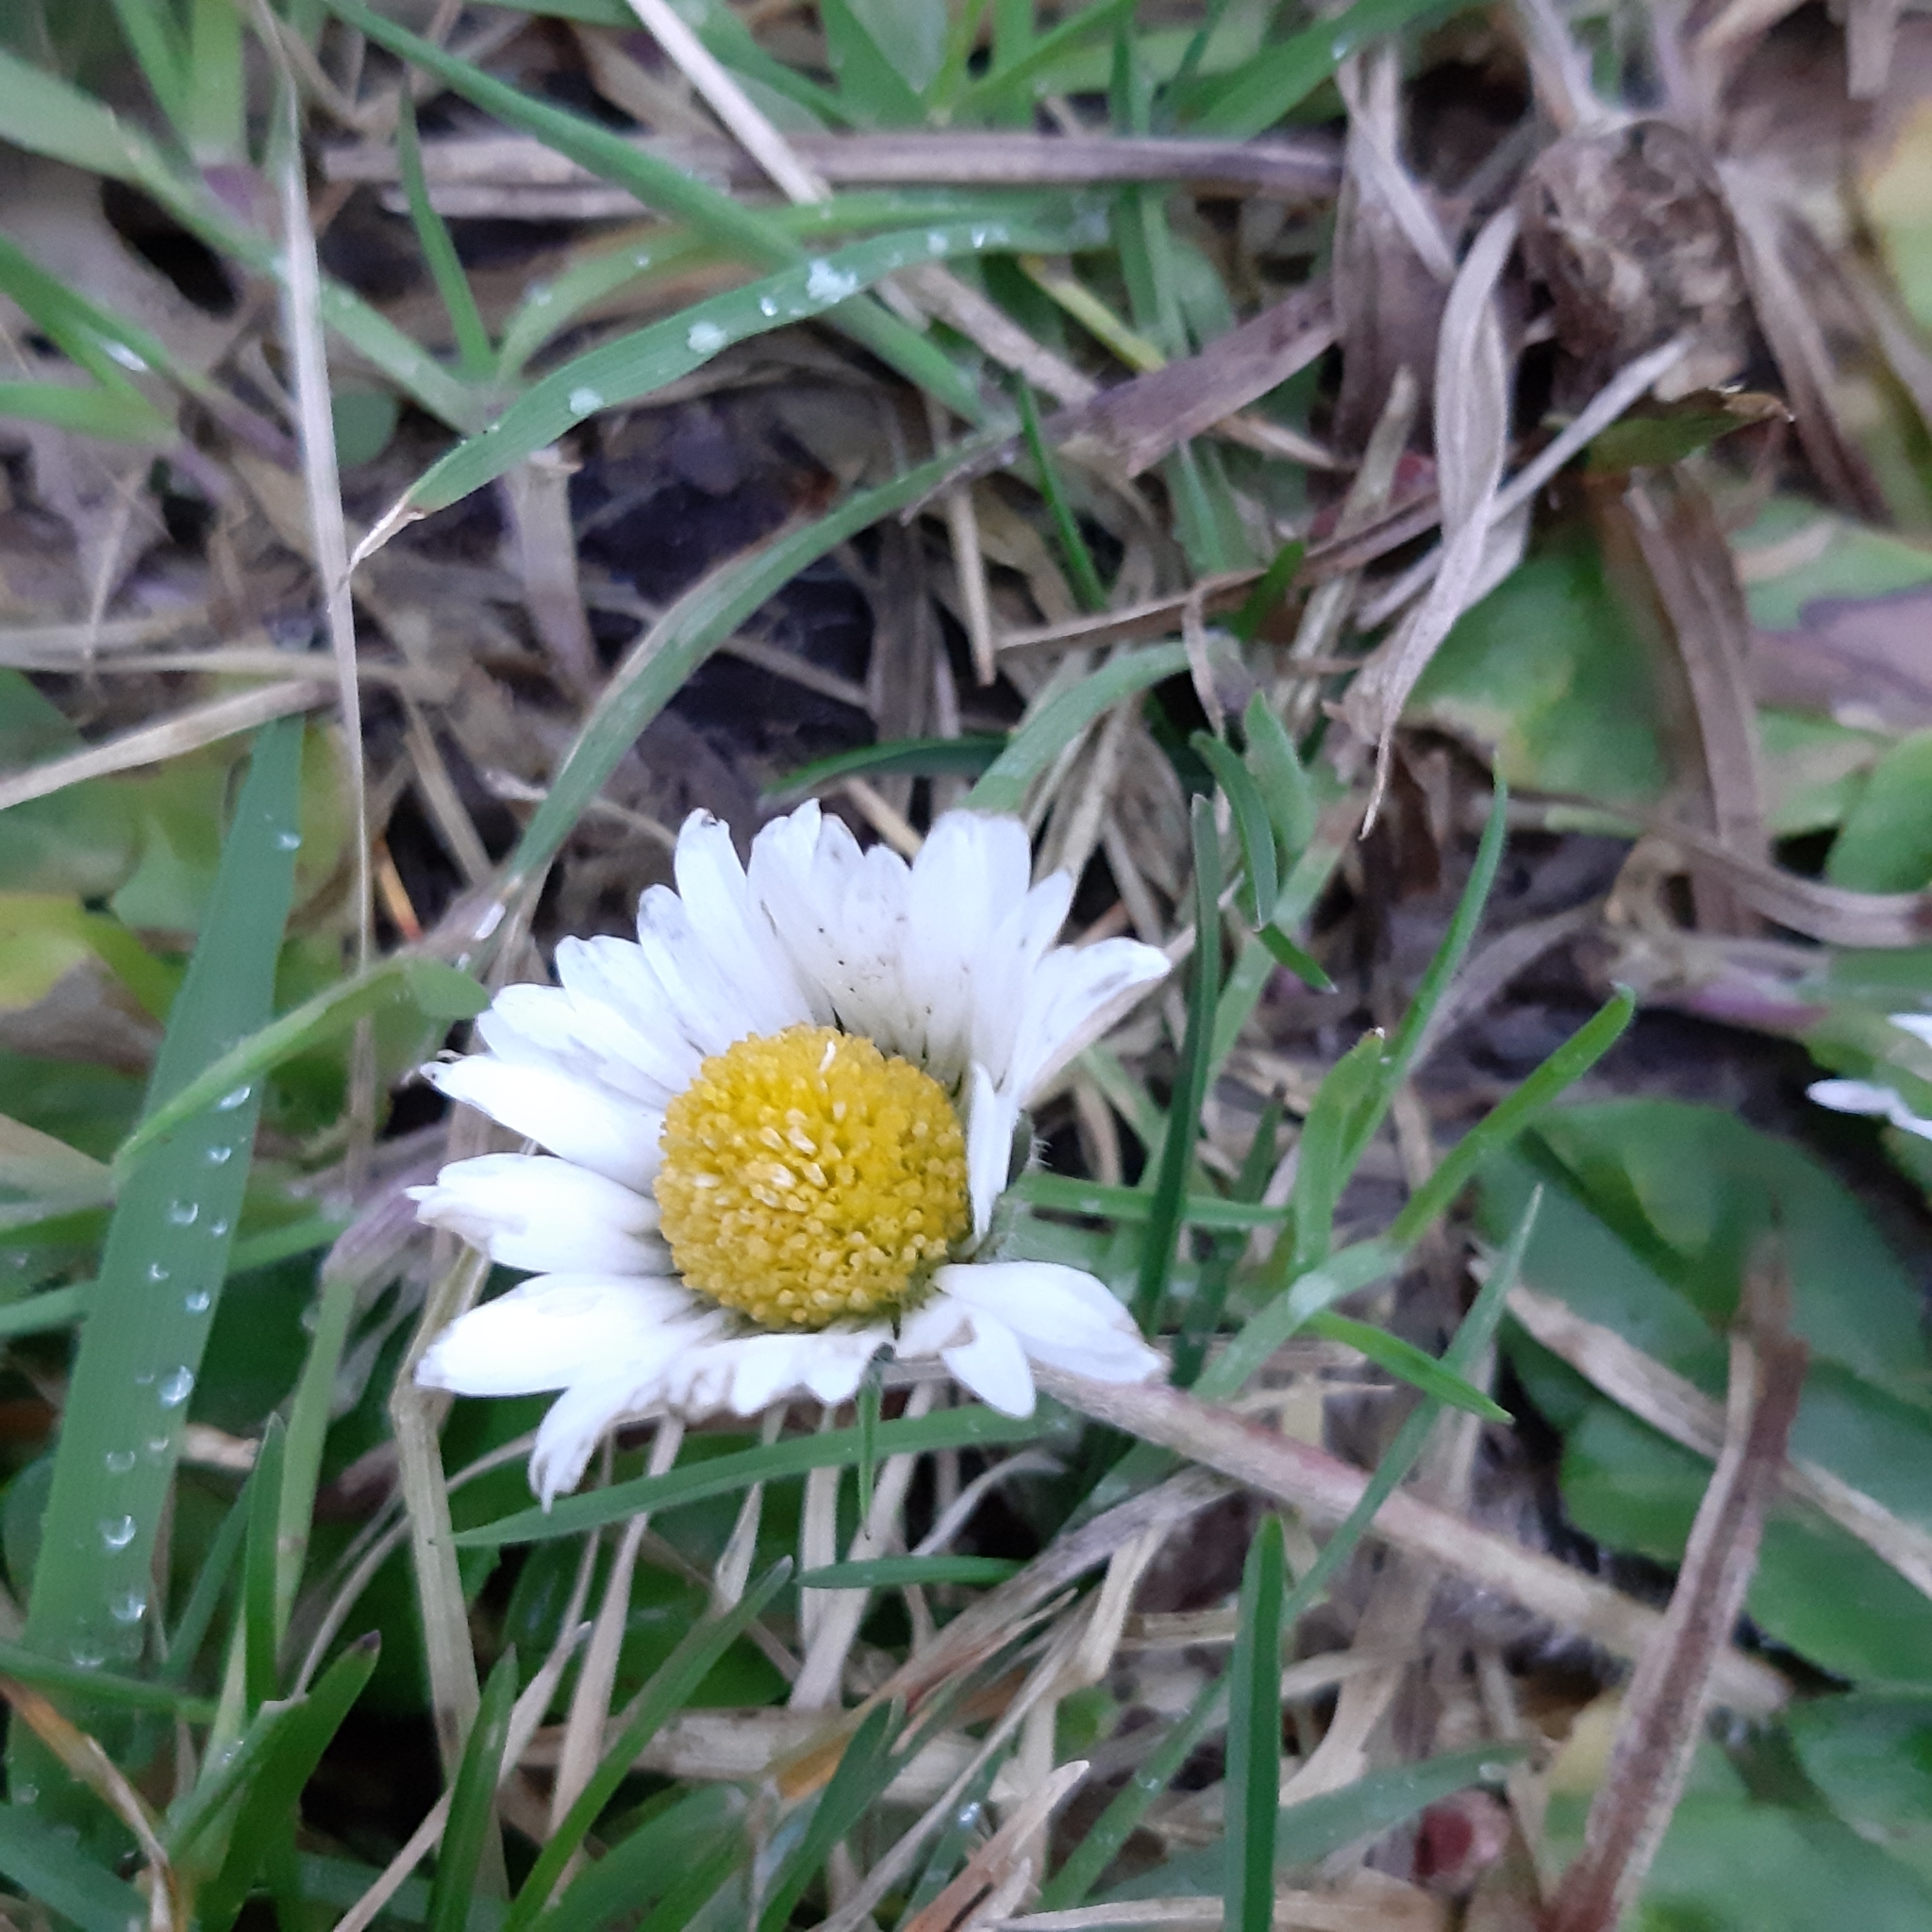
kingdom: Plantae
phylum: Tracheophyta
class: Magnoliopsida
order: Asterales
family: Asteraceae
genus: Bellis
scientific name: Bellis perennis
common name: Lawndaisy
